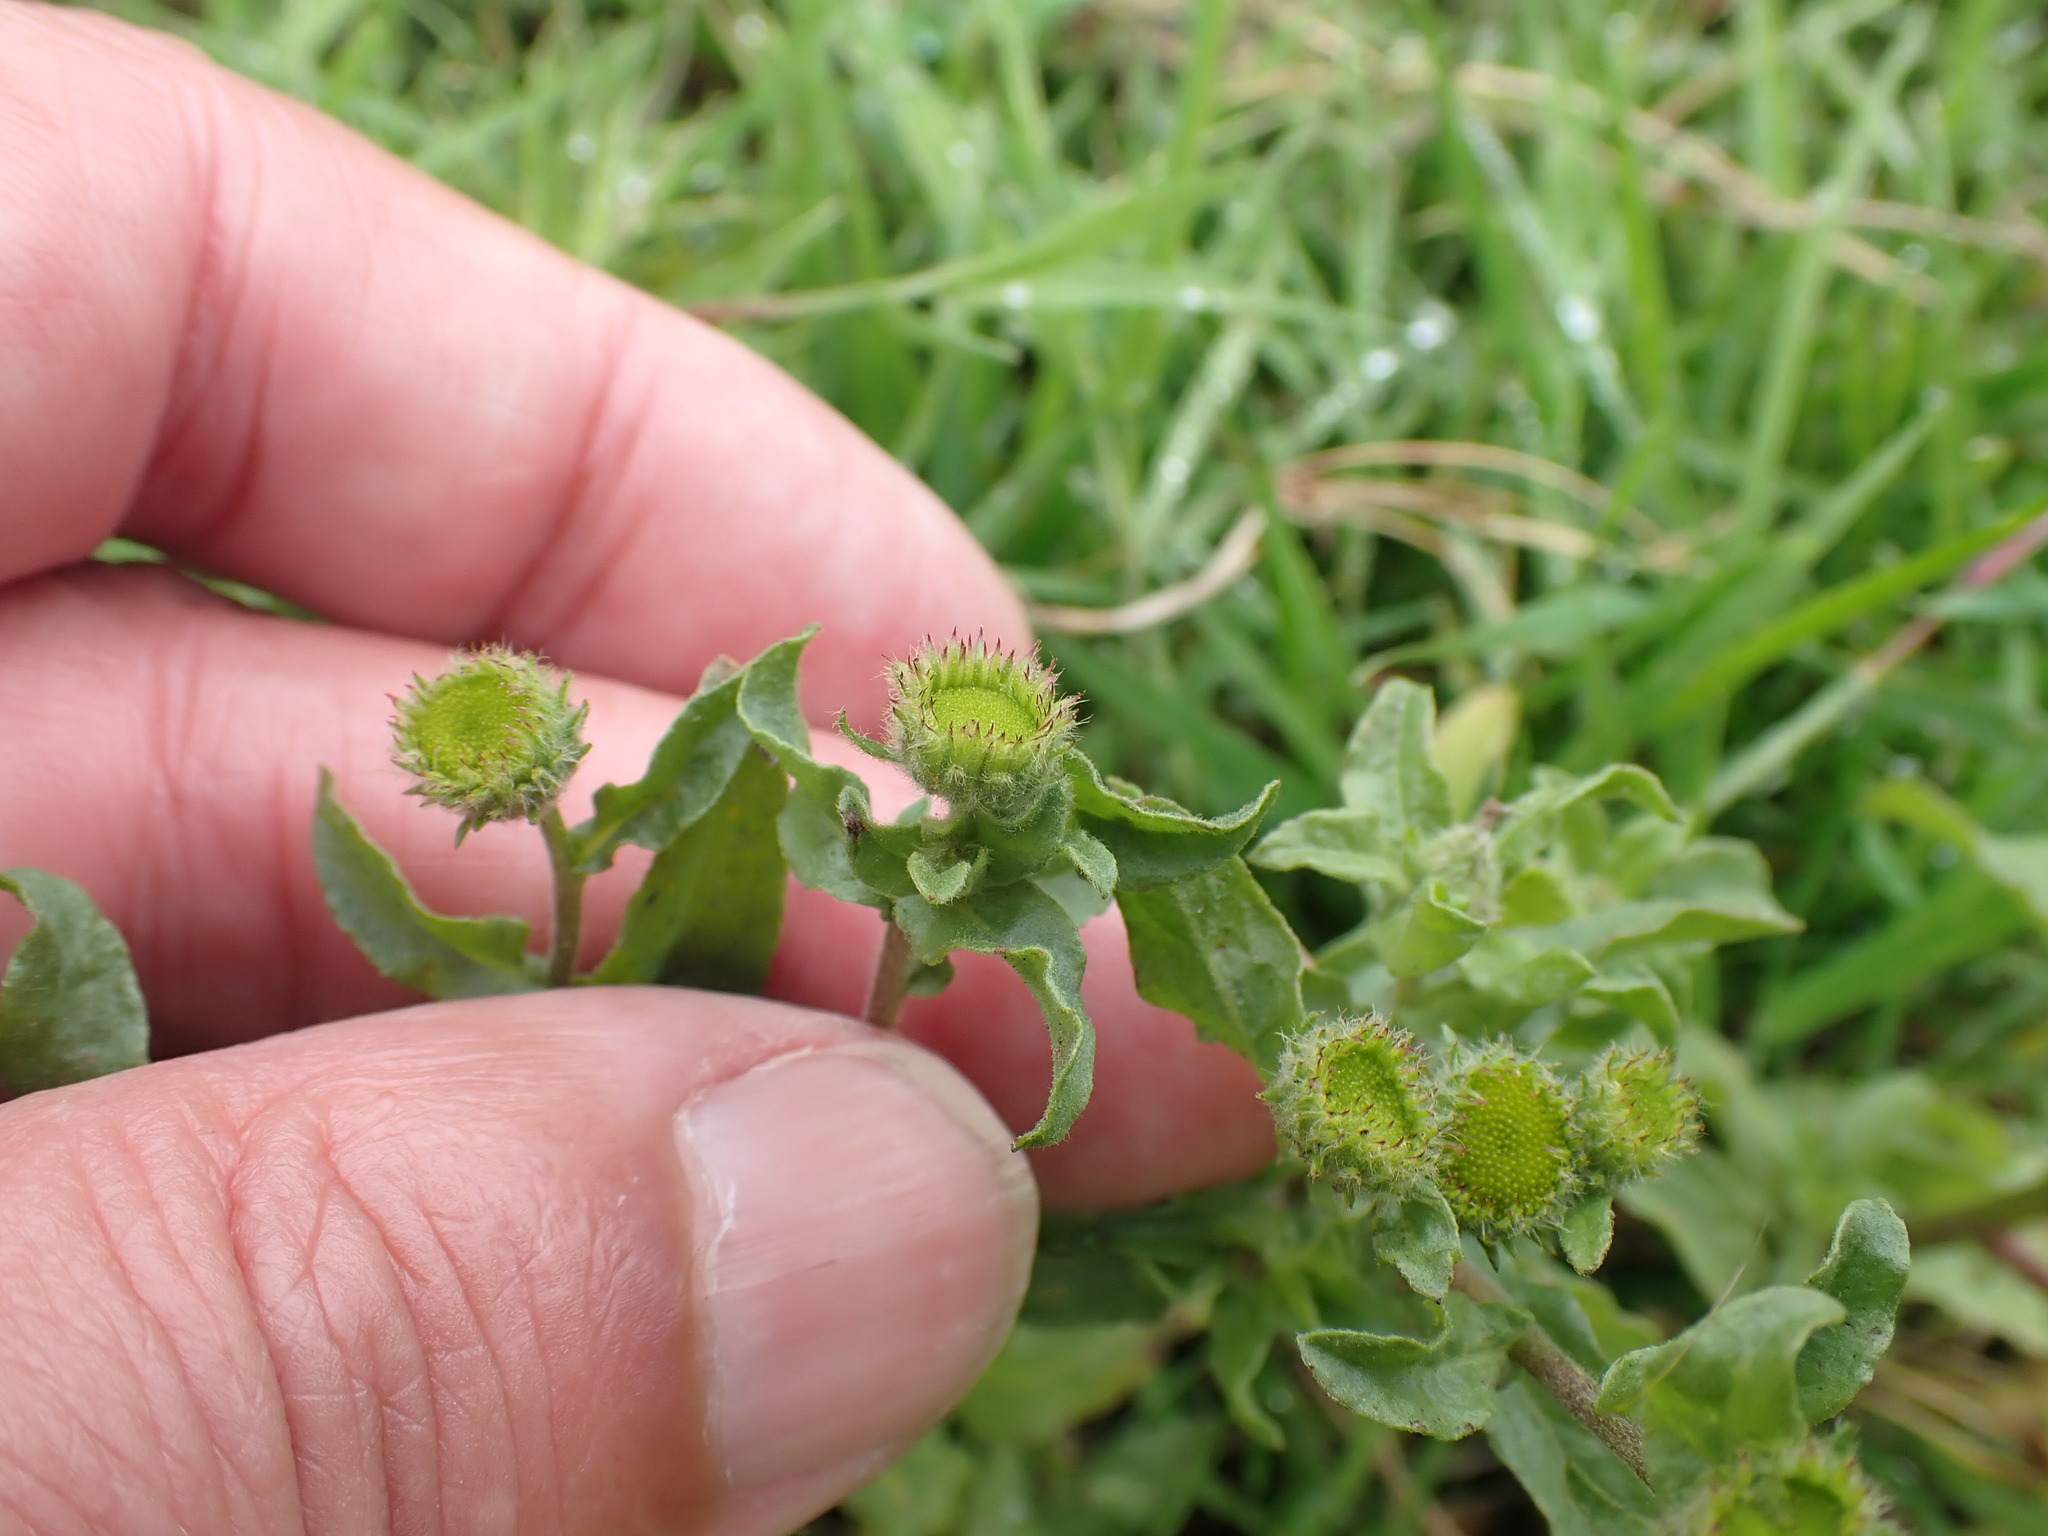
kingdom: Plantae
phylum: Tracheophyta
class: Magnoliopsida
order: Asterales
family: Asteraceae
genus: Pulicaria
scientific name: Pulicaria vulgaris
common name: Small fleabane
